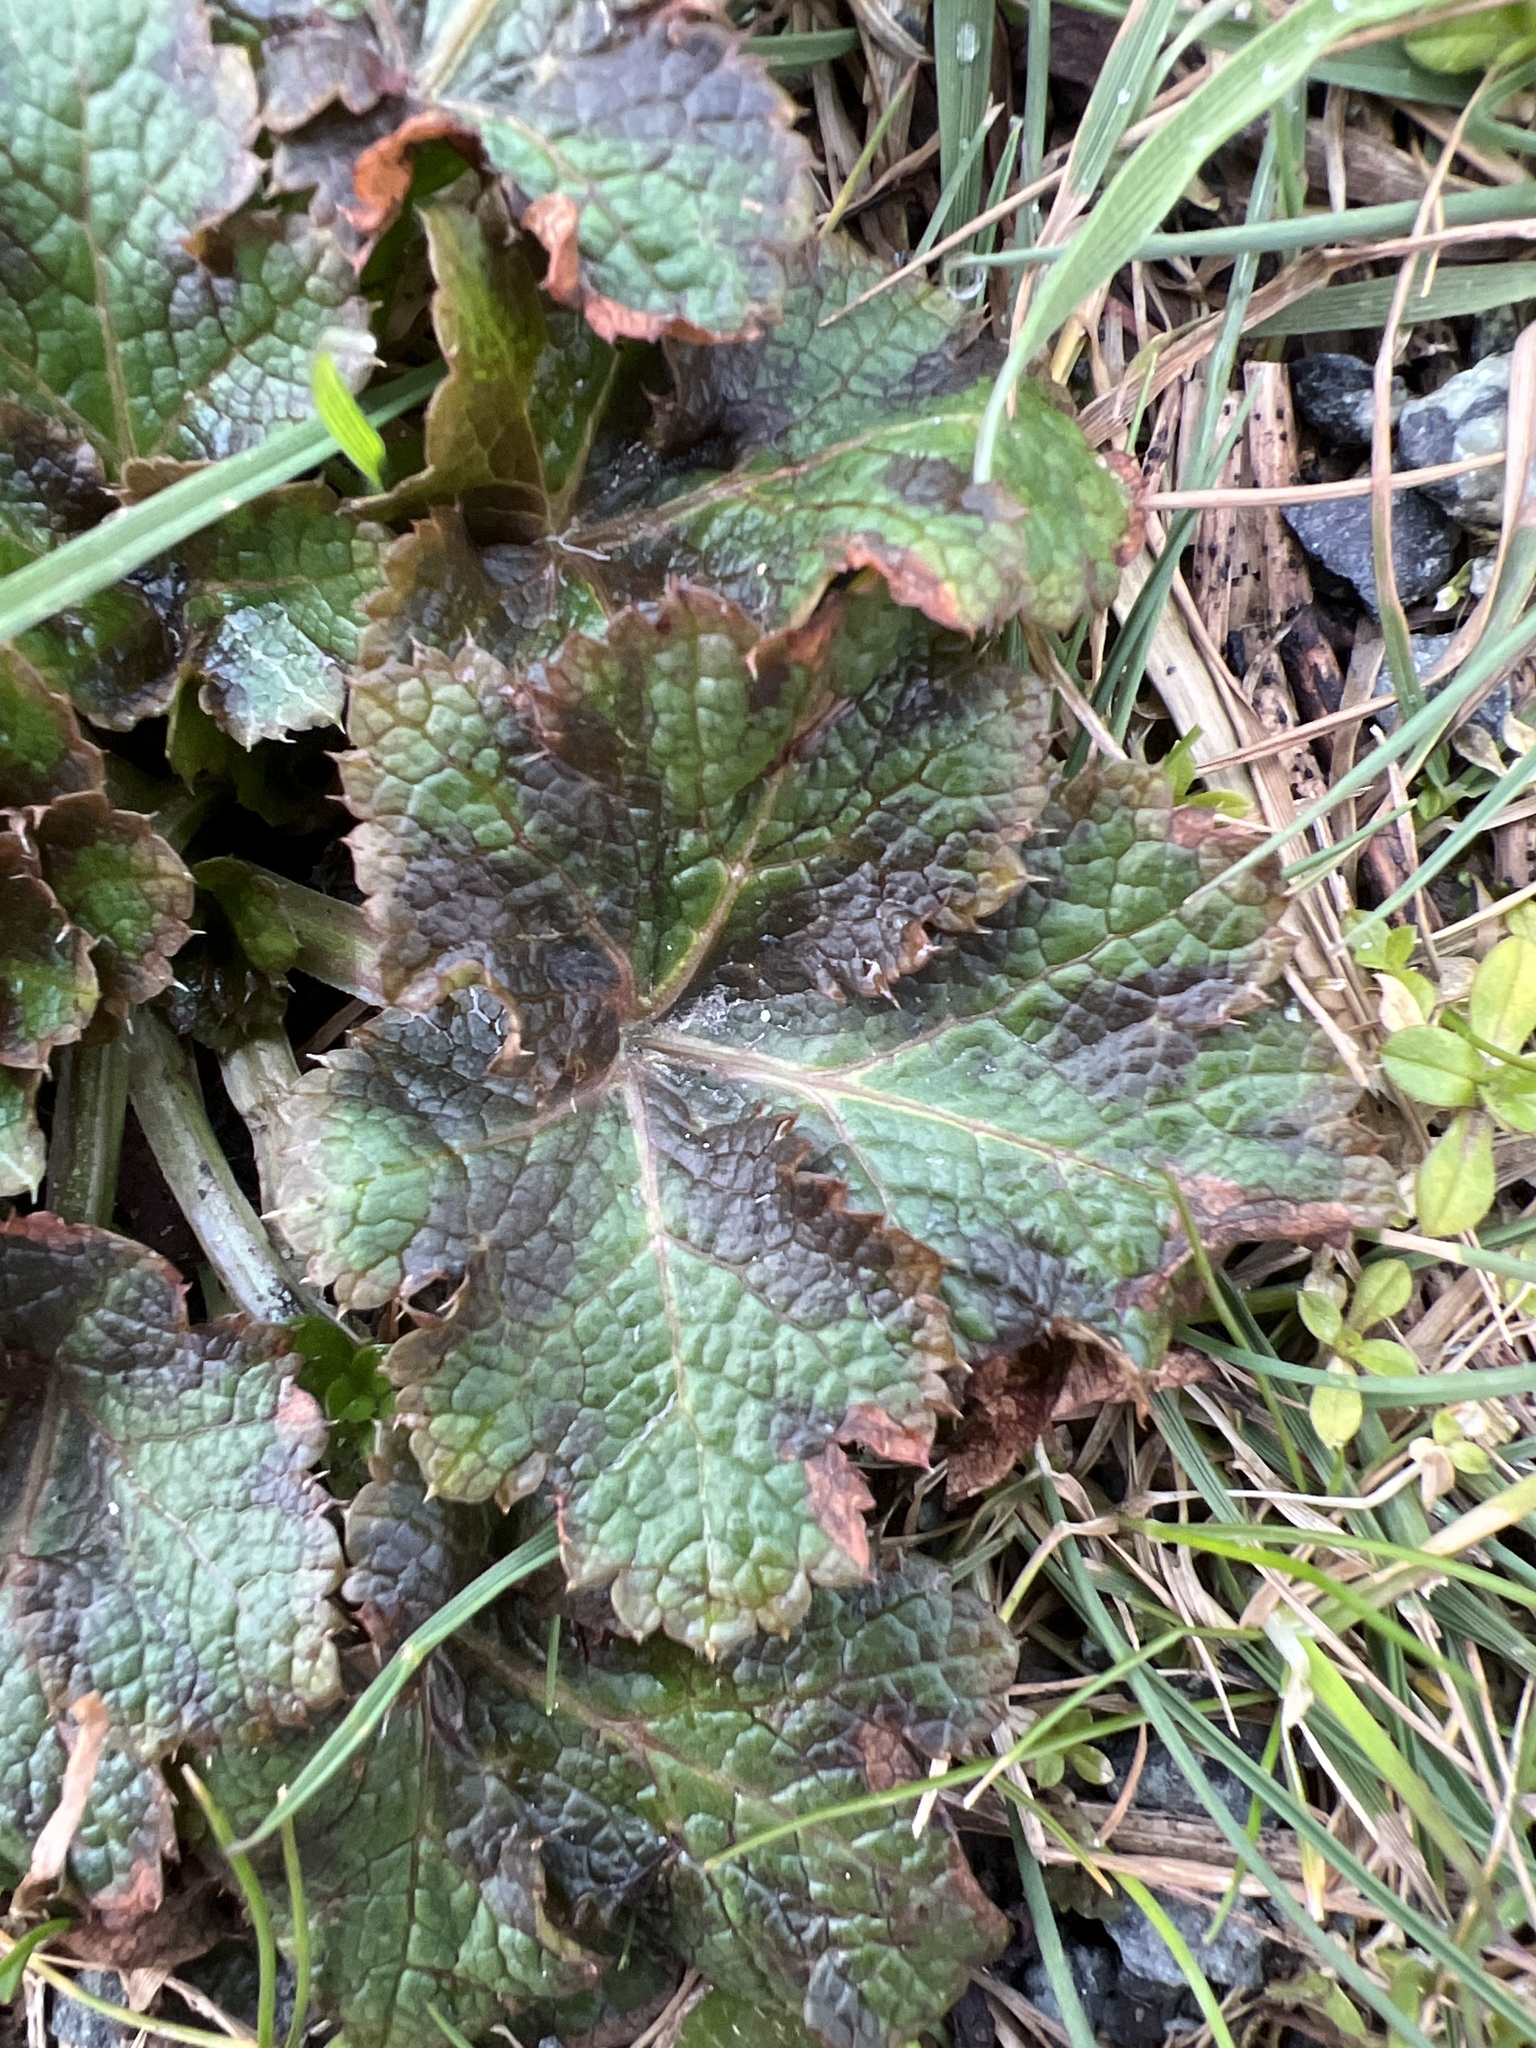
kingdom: Plantae
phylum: Tracheophyta
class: Magnoliopsida
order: Apiales
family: Apiaceae
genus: Sanicula
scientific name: Sanicula crassicaulis
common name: Western snakeroot
